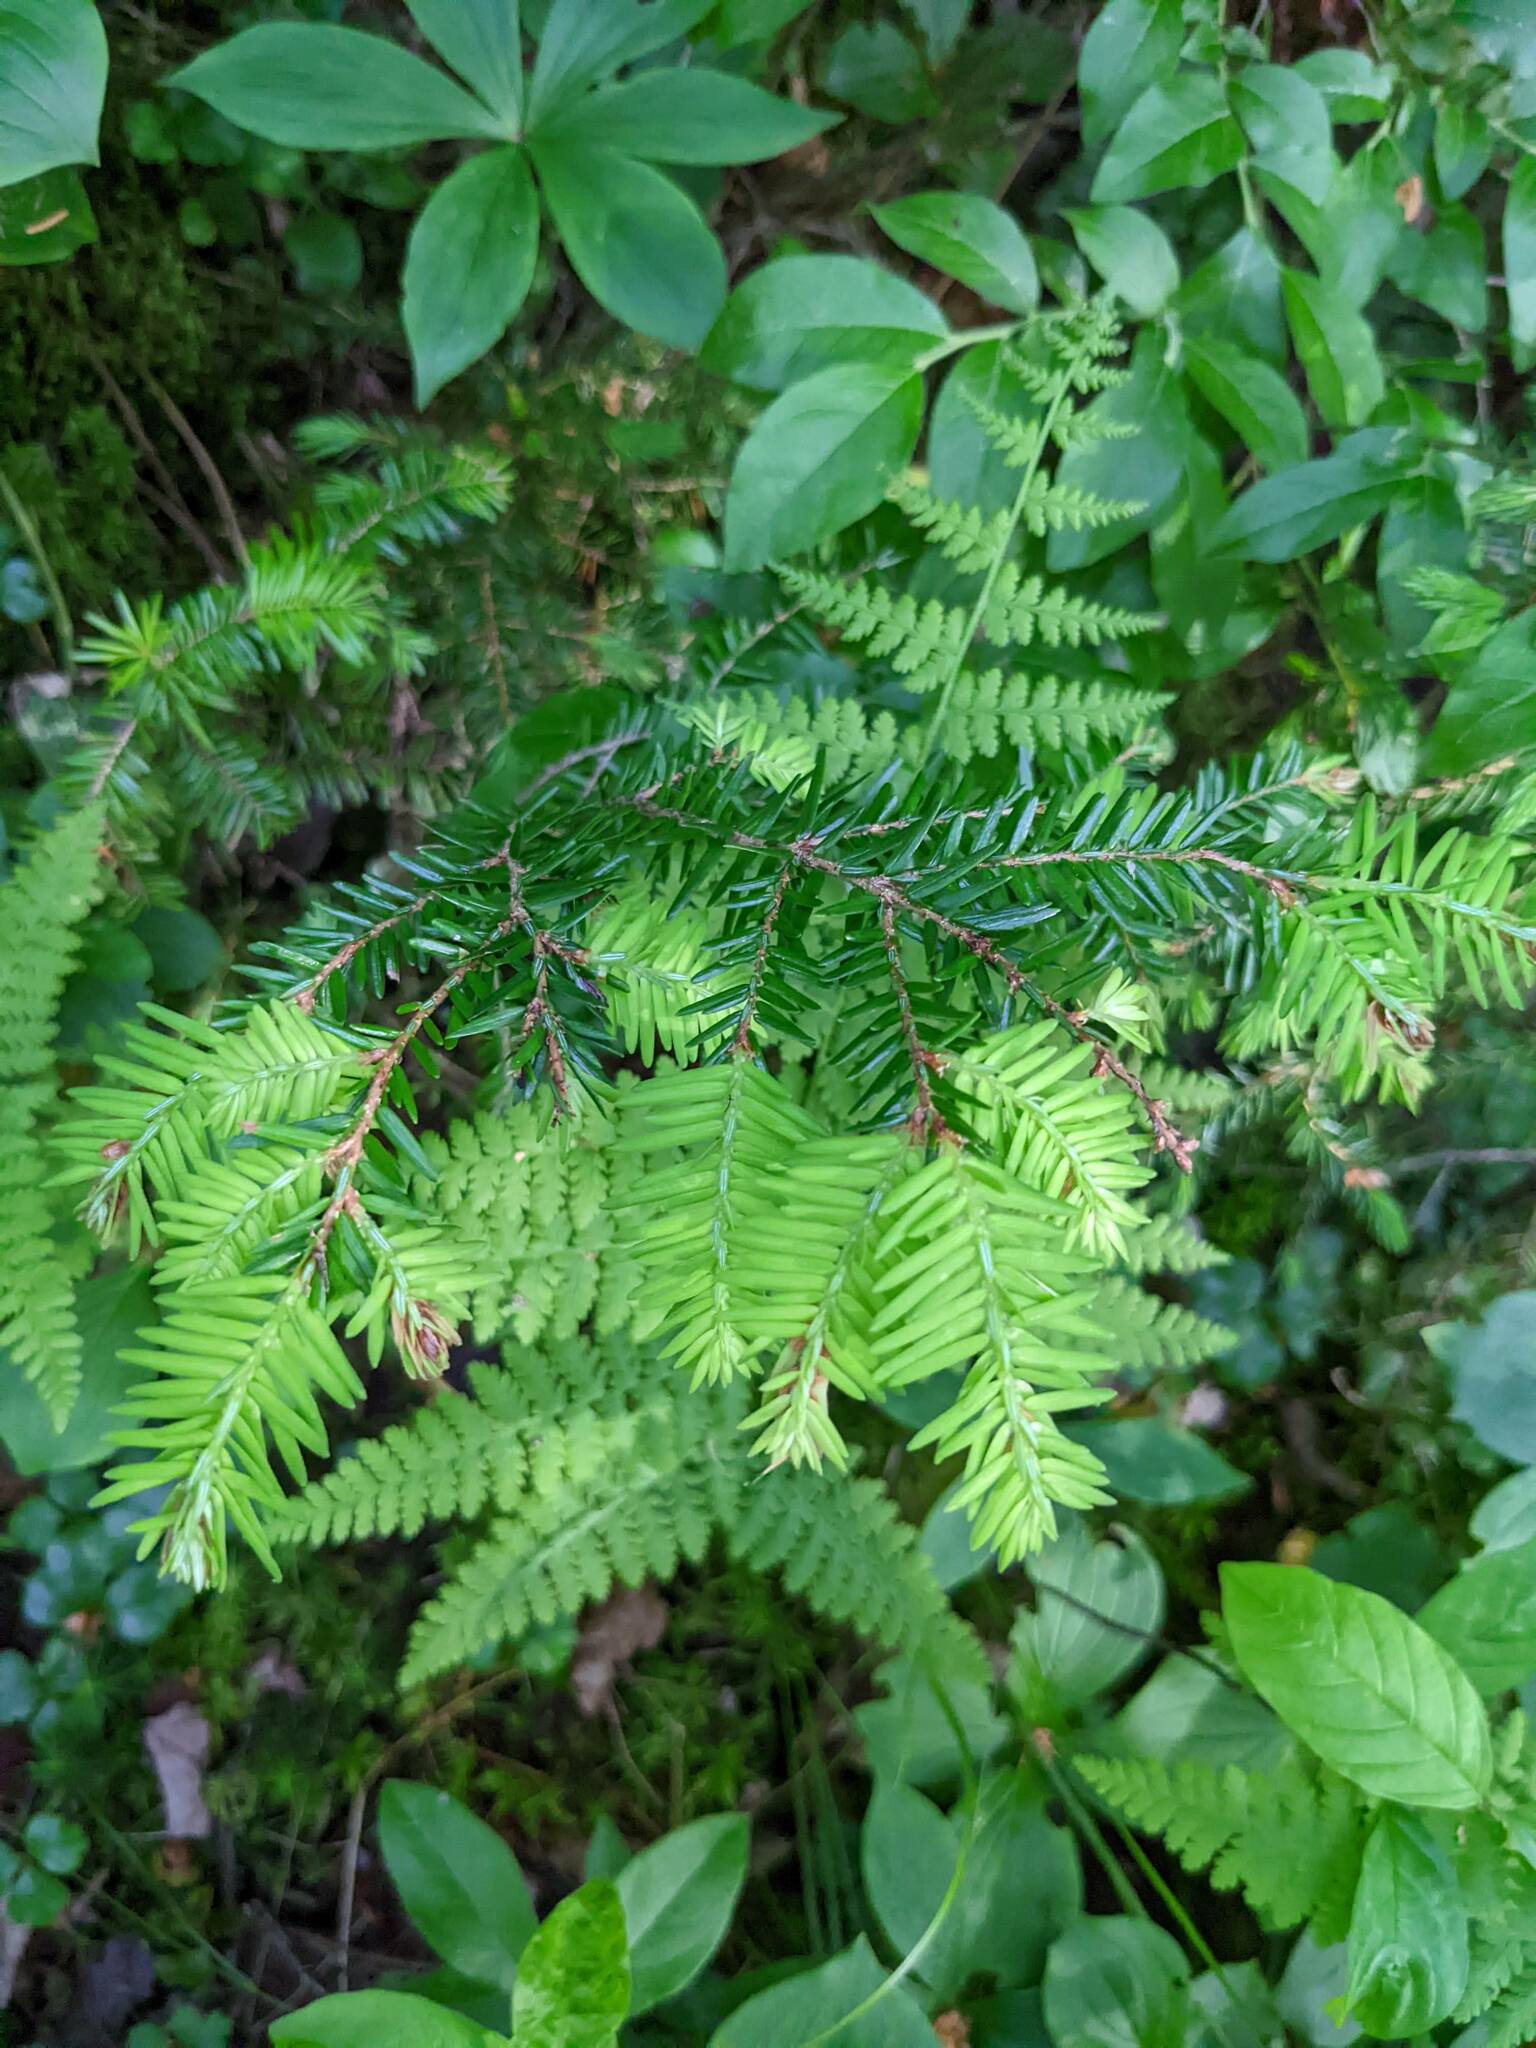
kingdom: Plantae
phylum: Tracheophyta
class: Pinopsida
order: Pinales
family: Pinaceae
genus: Tsuga
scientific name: Tsuga canadensis
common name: Eastern hemlock
